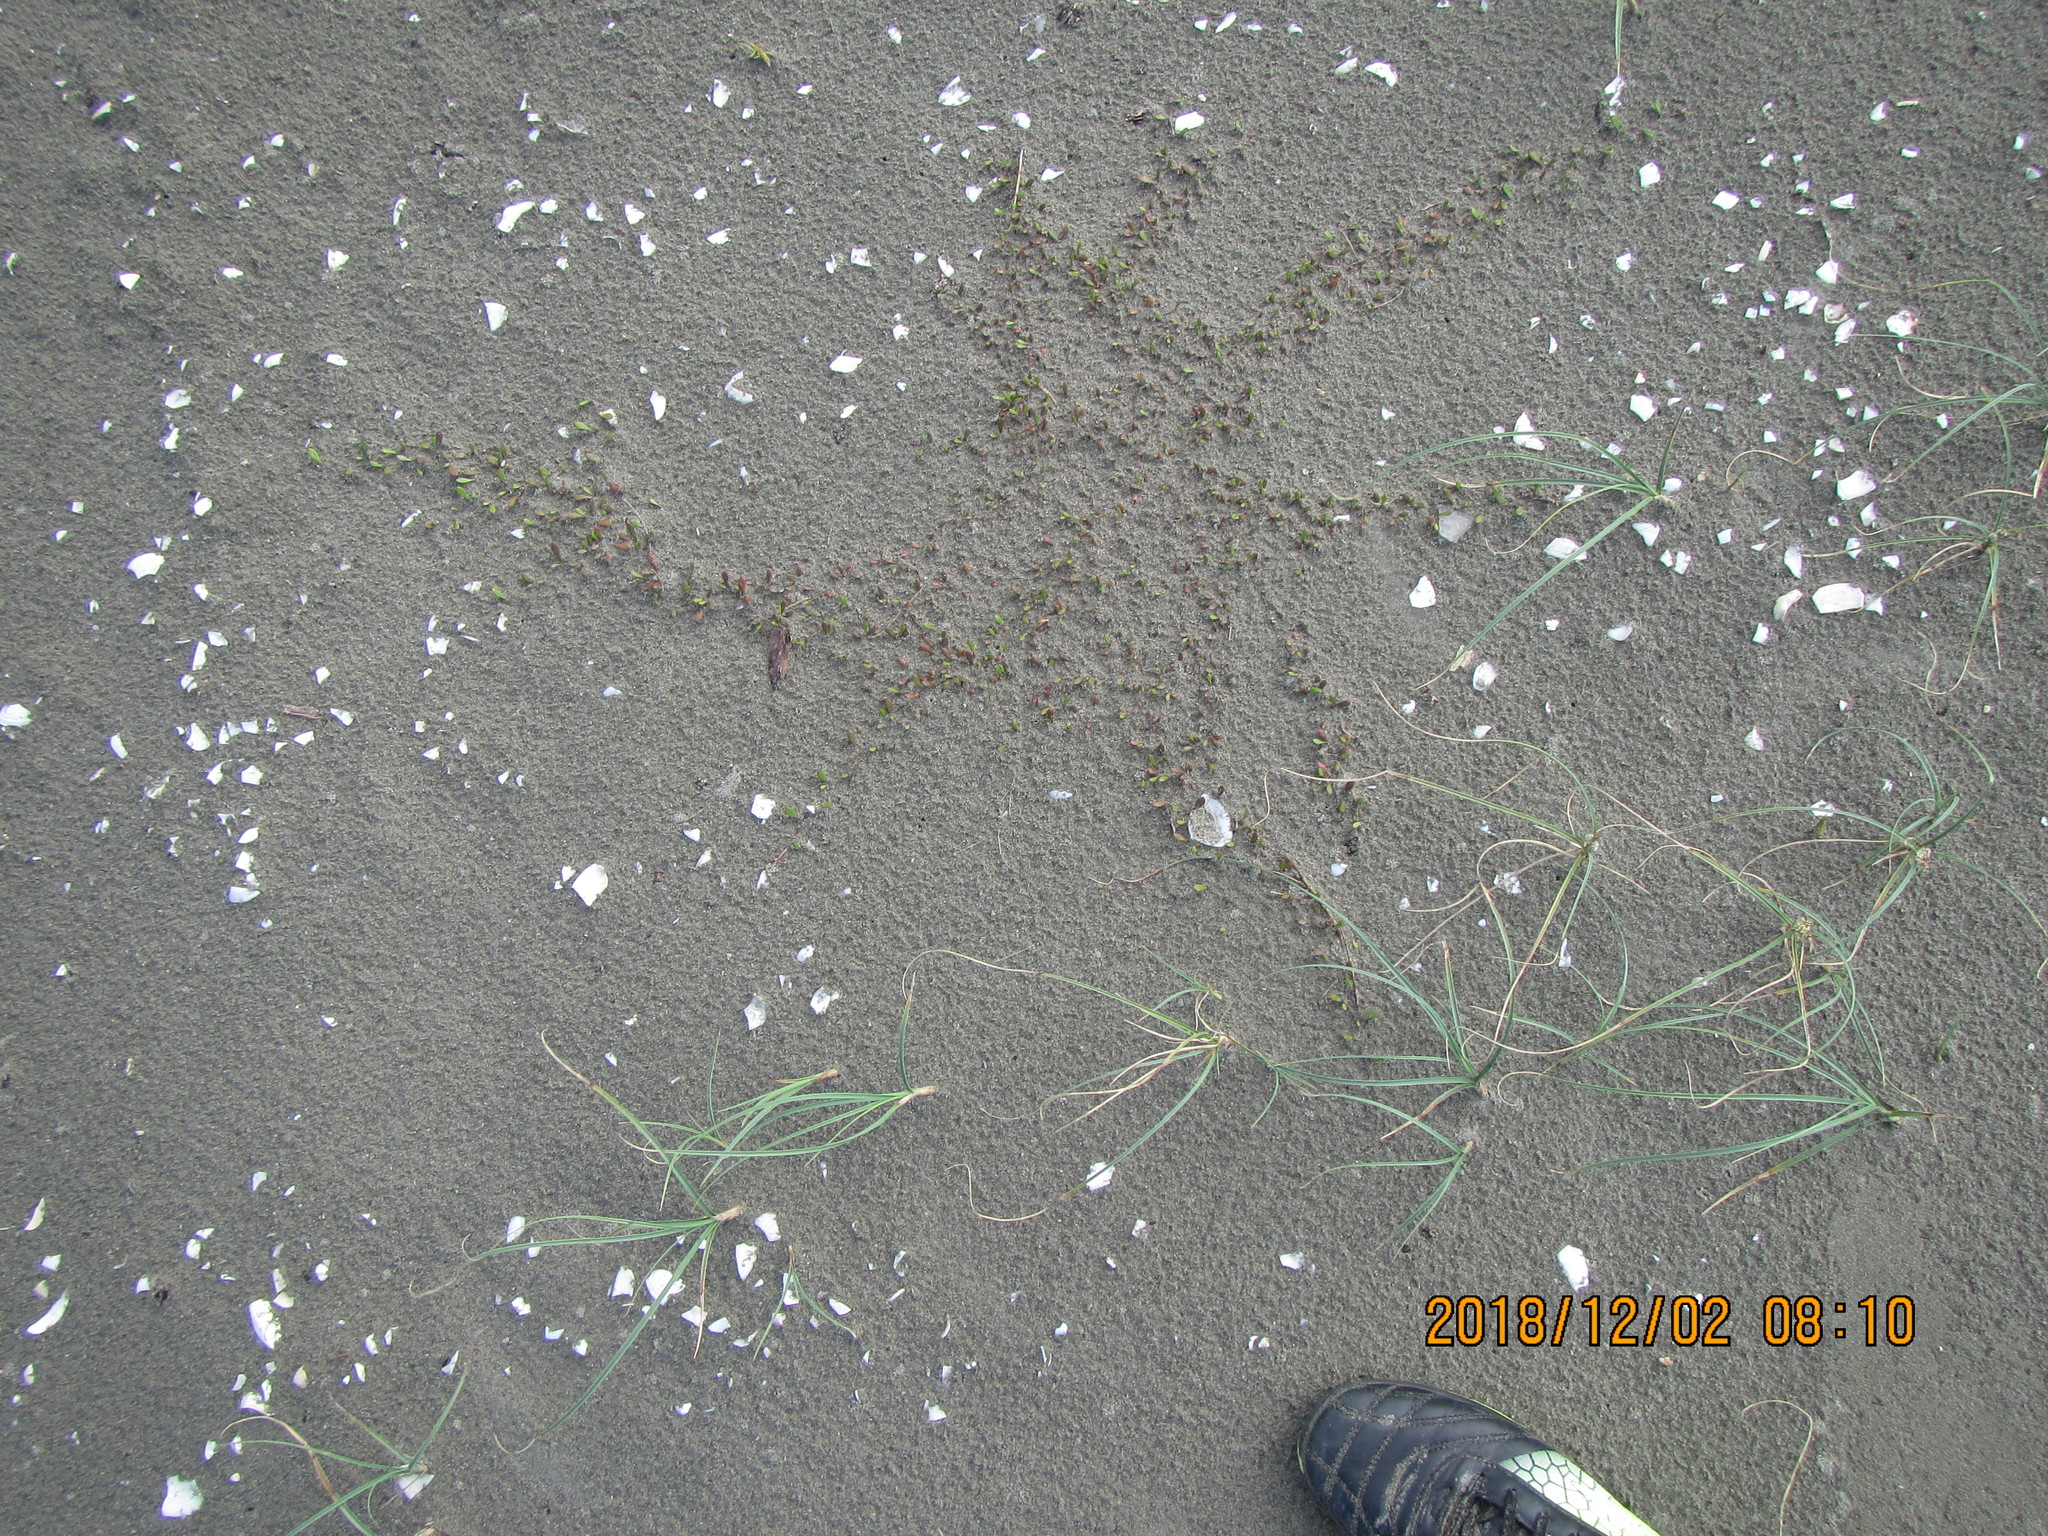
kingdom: Plantae
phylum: Tracheophyta
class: Magnoliopsida
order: Asterales
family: Goodeniaceae
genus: Goodenia
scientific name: Goodenia radicans
